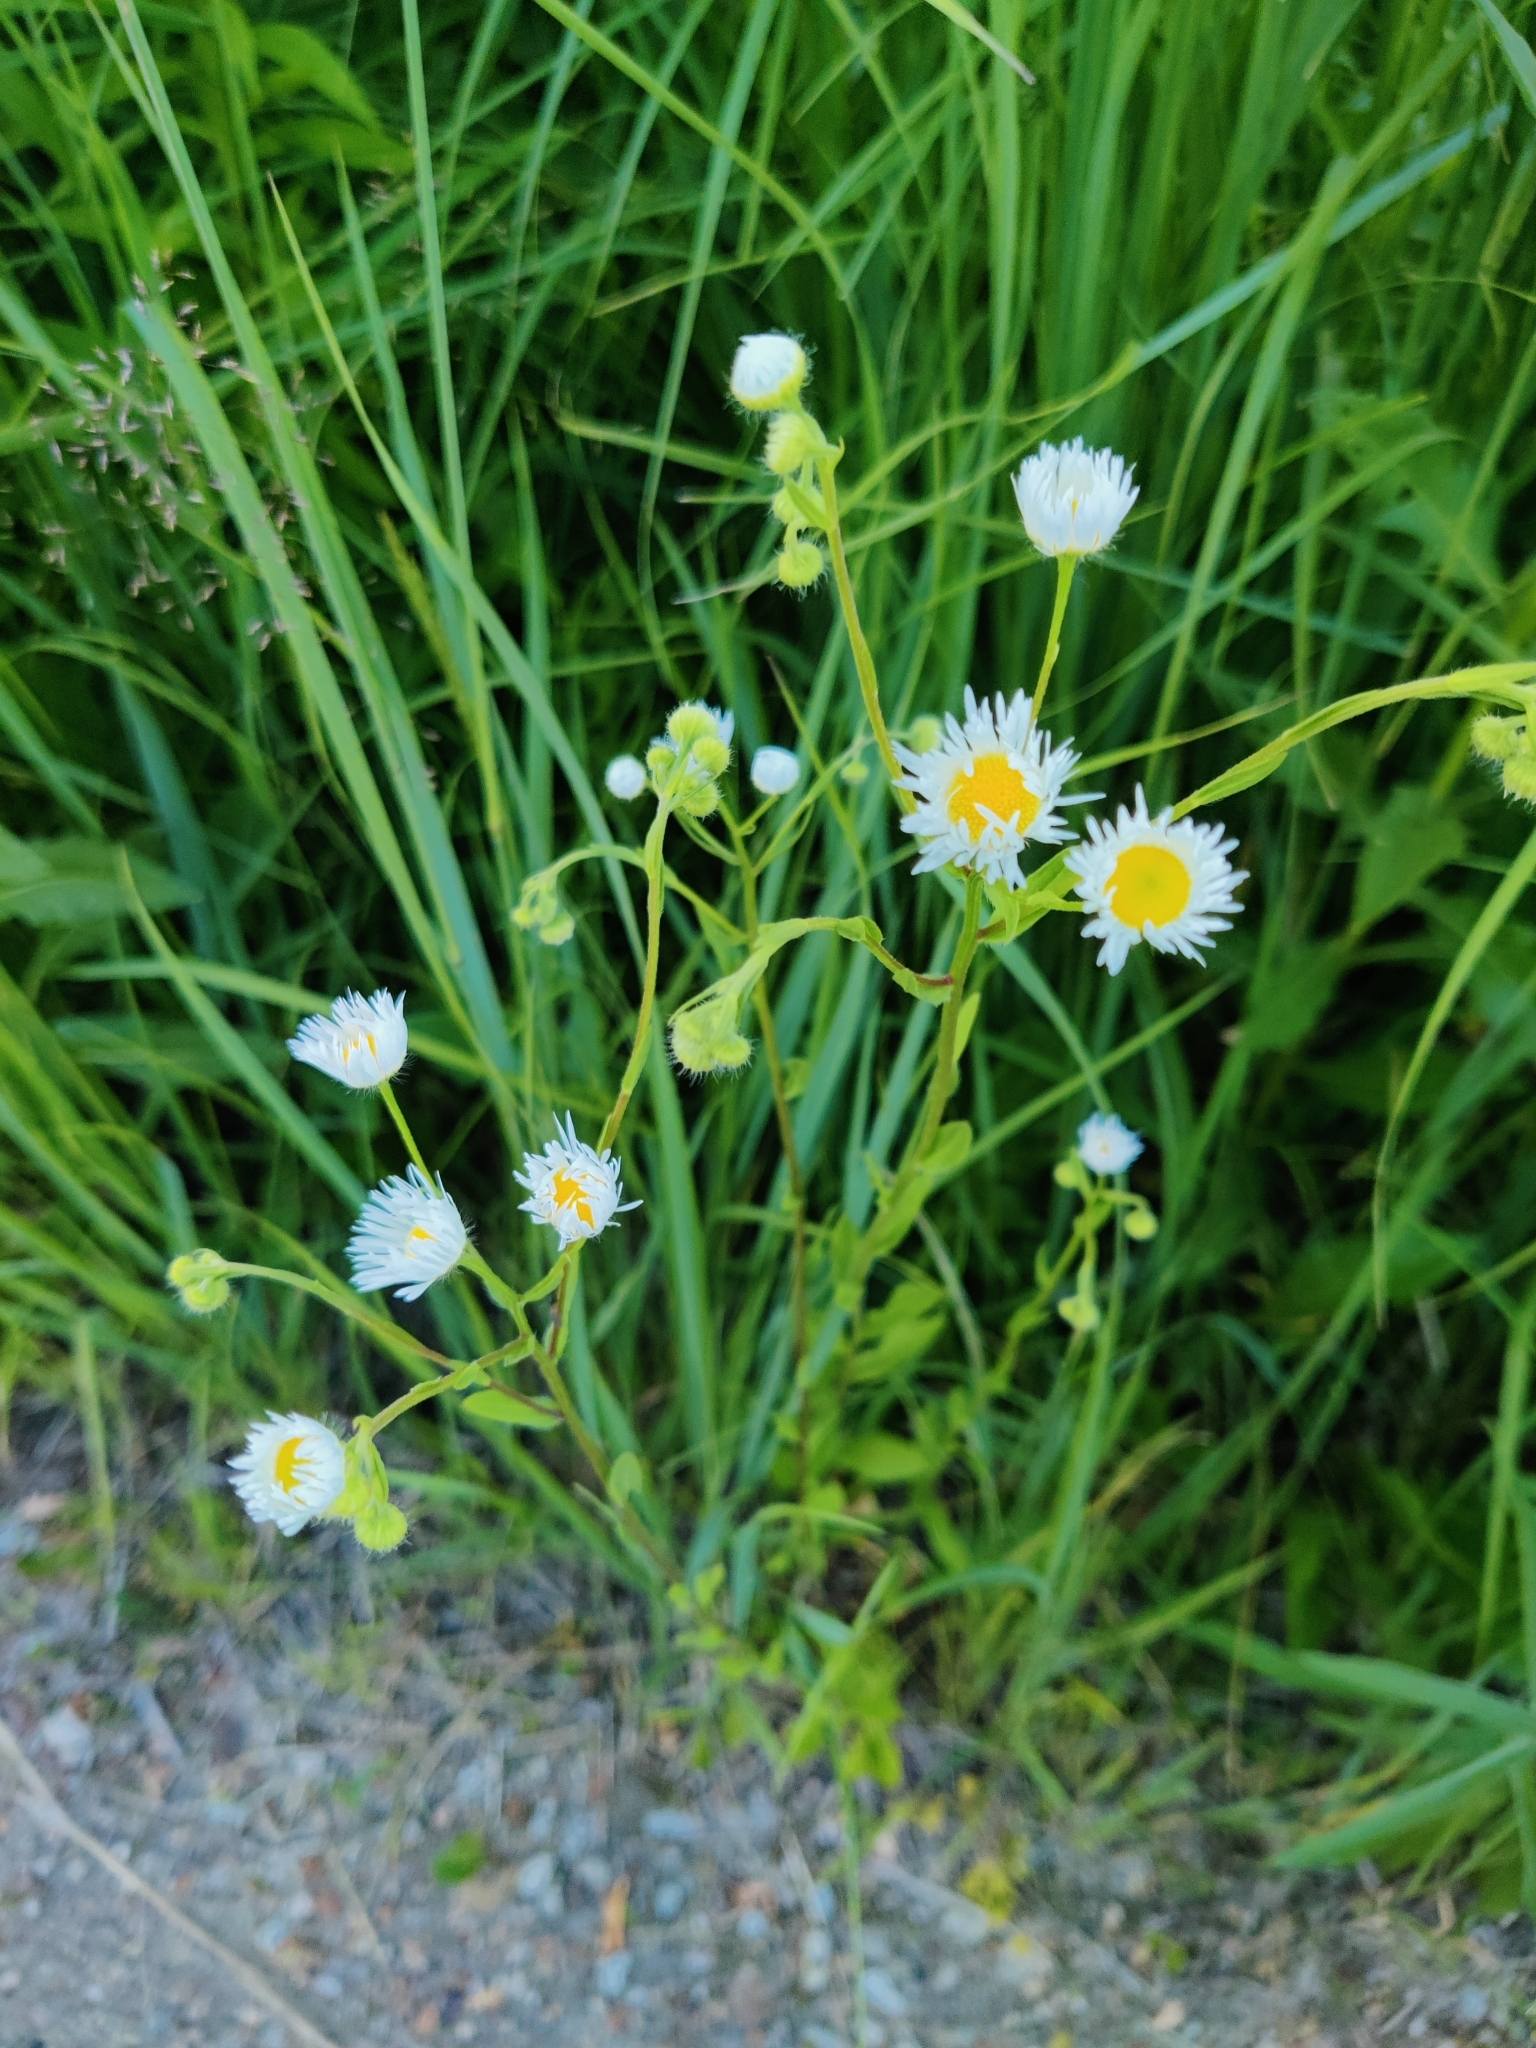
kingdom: Plantae
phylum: Tracheophyta
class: Magnoliopsida
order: Asterales
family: Asteraceae
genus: Erigeron
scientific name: Erigeron strigosus
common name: Common eastern fleabane
